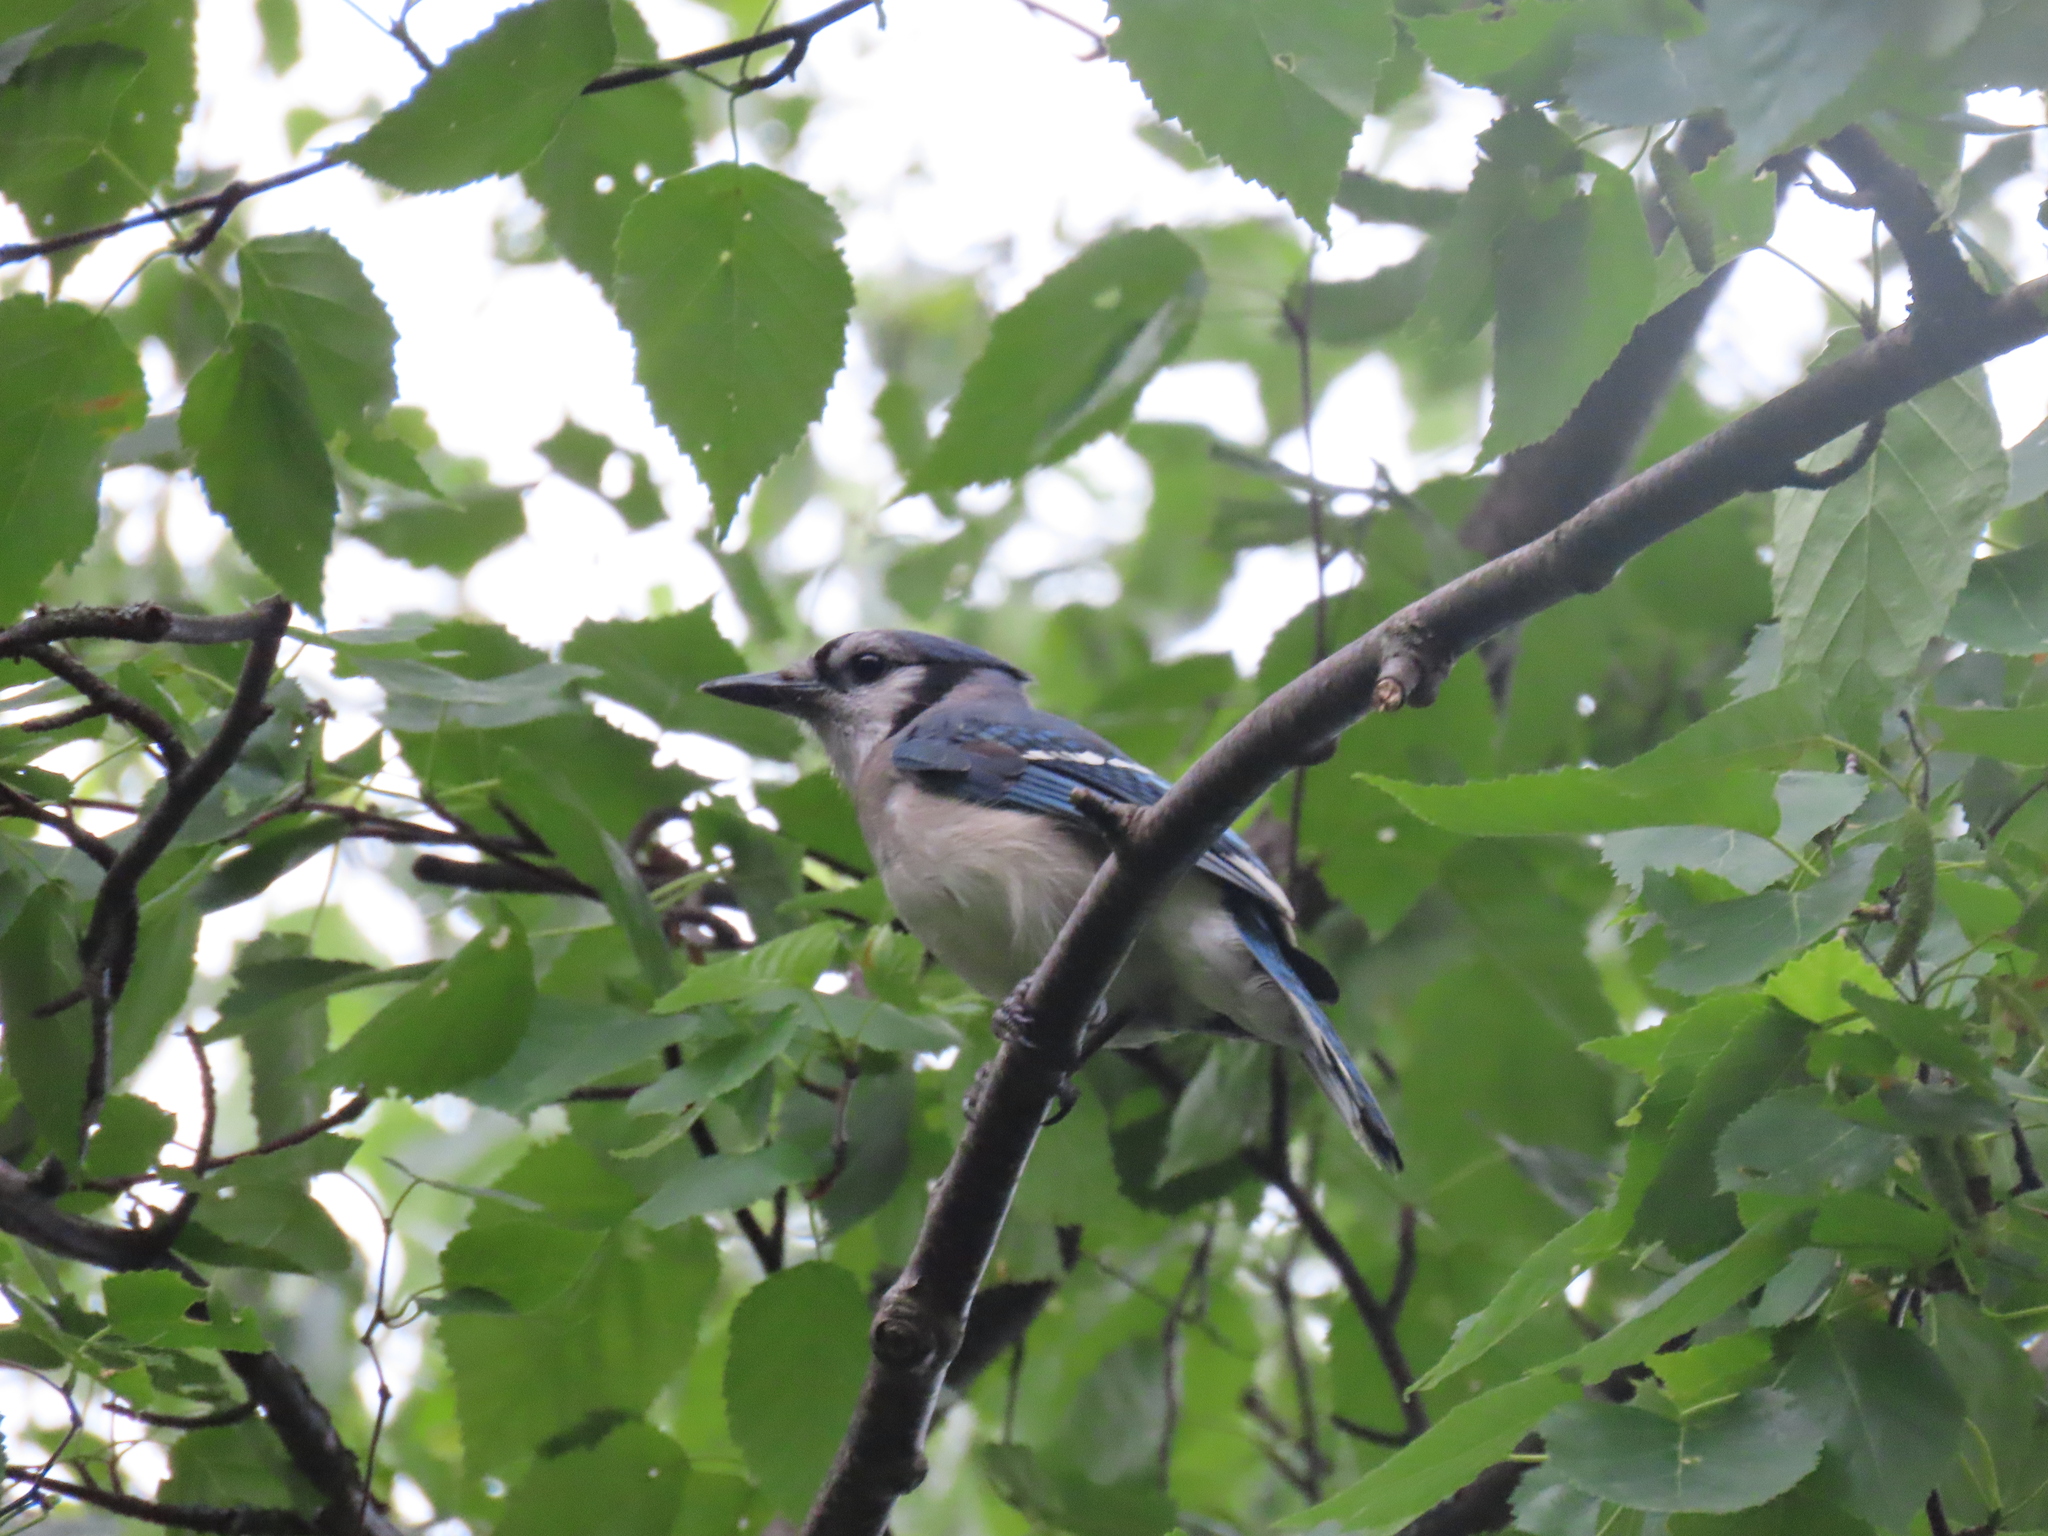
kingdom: Animalia
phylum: Chordata
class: Aves
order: Passeriformes
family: Corvidae
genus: Cyanocitta
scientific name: Cyanocitta cristata
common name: Blue jay
